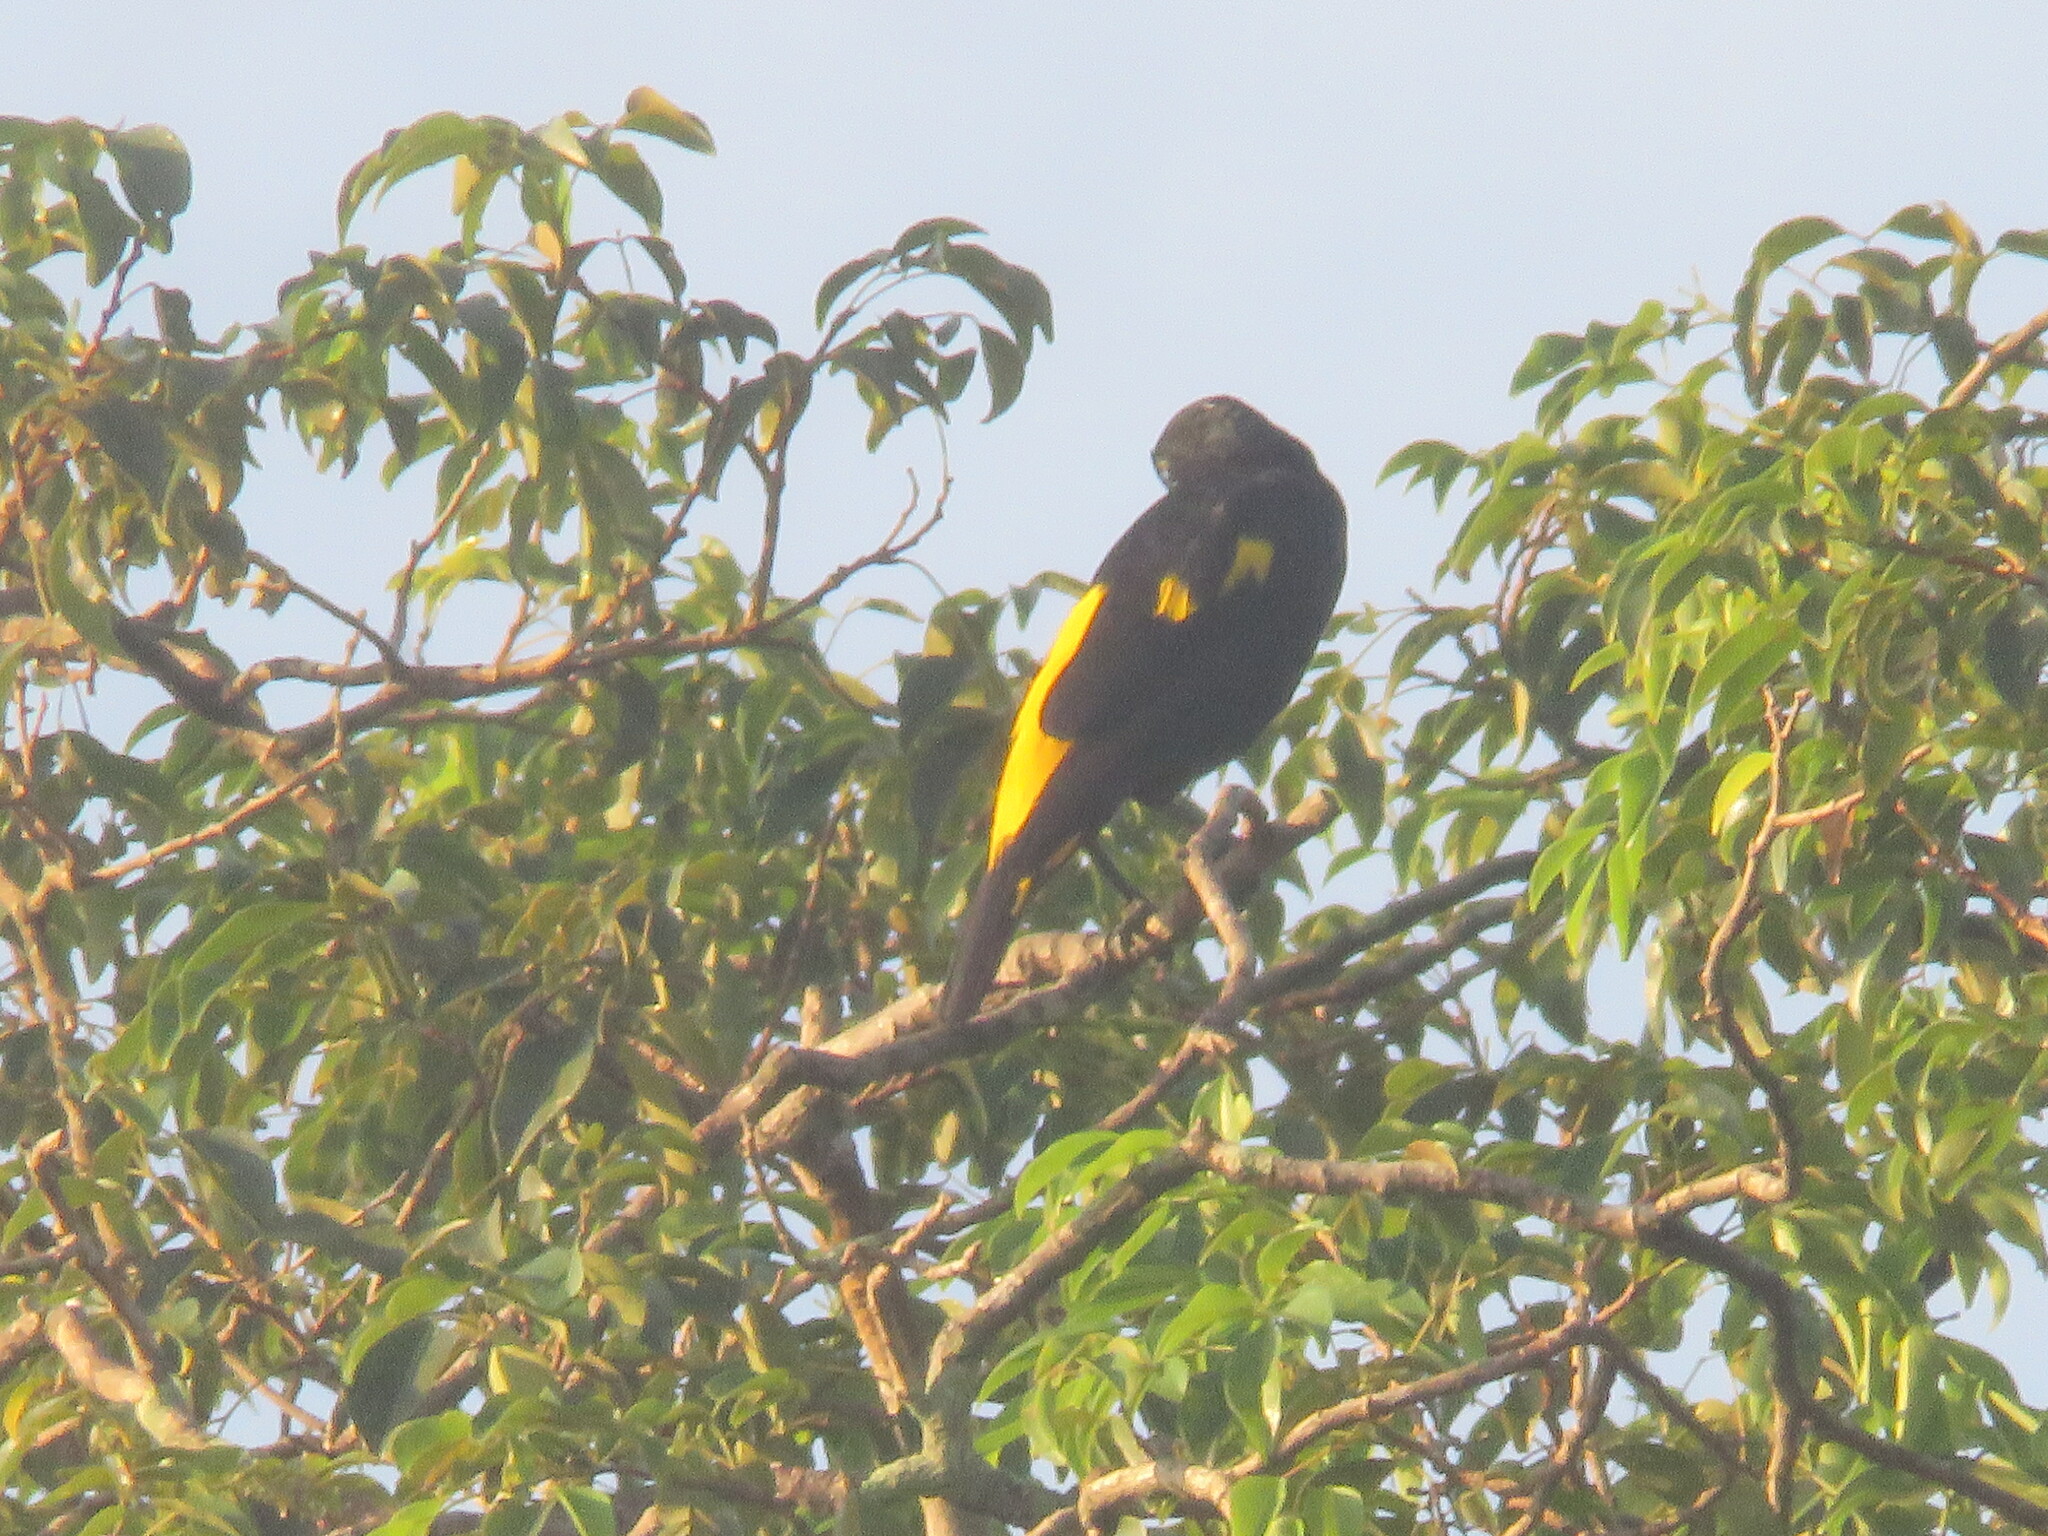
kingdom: Animalia
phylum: Chordata
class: Aves
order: Passeriformes
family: Icteridae
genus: Cacicus
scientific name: Cacicus cela
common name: Yellow-rumped cacique
